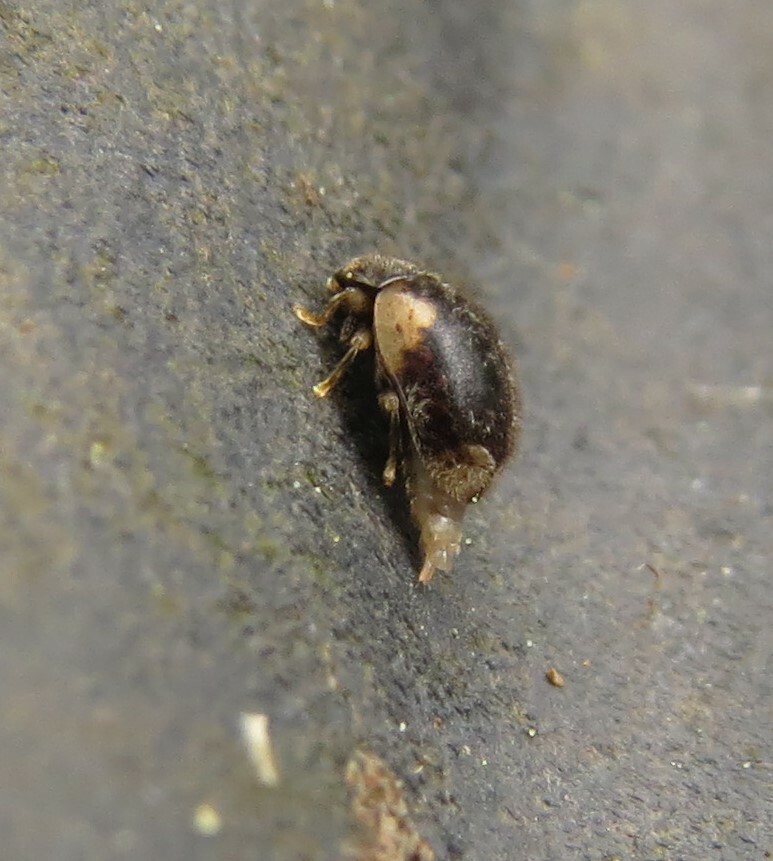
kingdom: Animalia
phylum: Arthropoda
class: Insecta
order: Coleoptera
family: Coccinellidae
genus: Rhyzobius
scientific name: Rhyzobius
